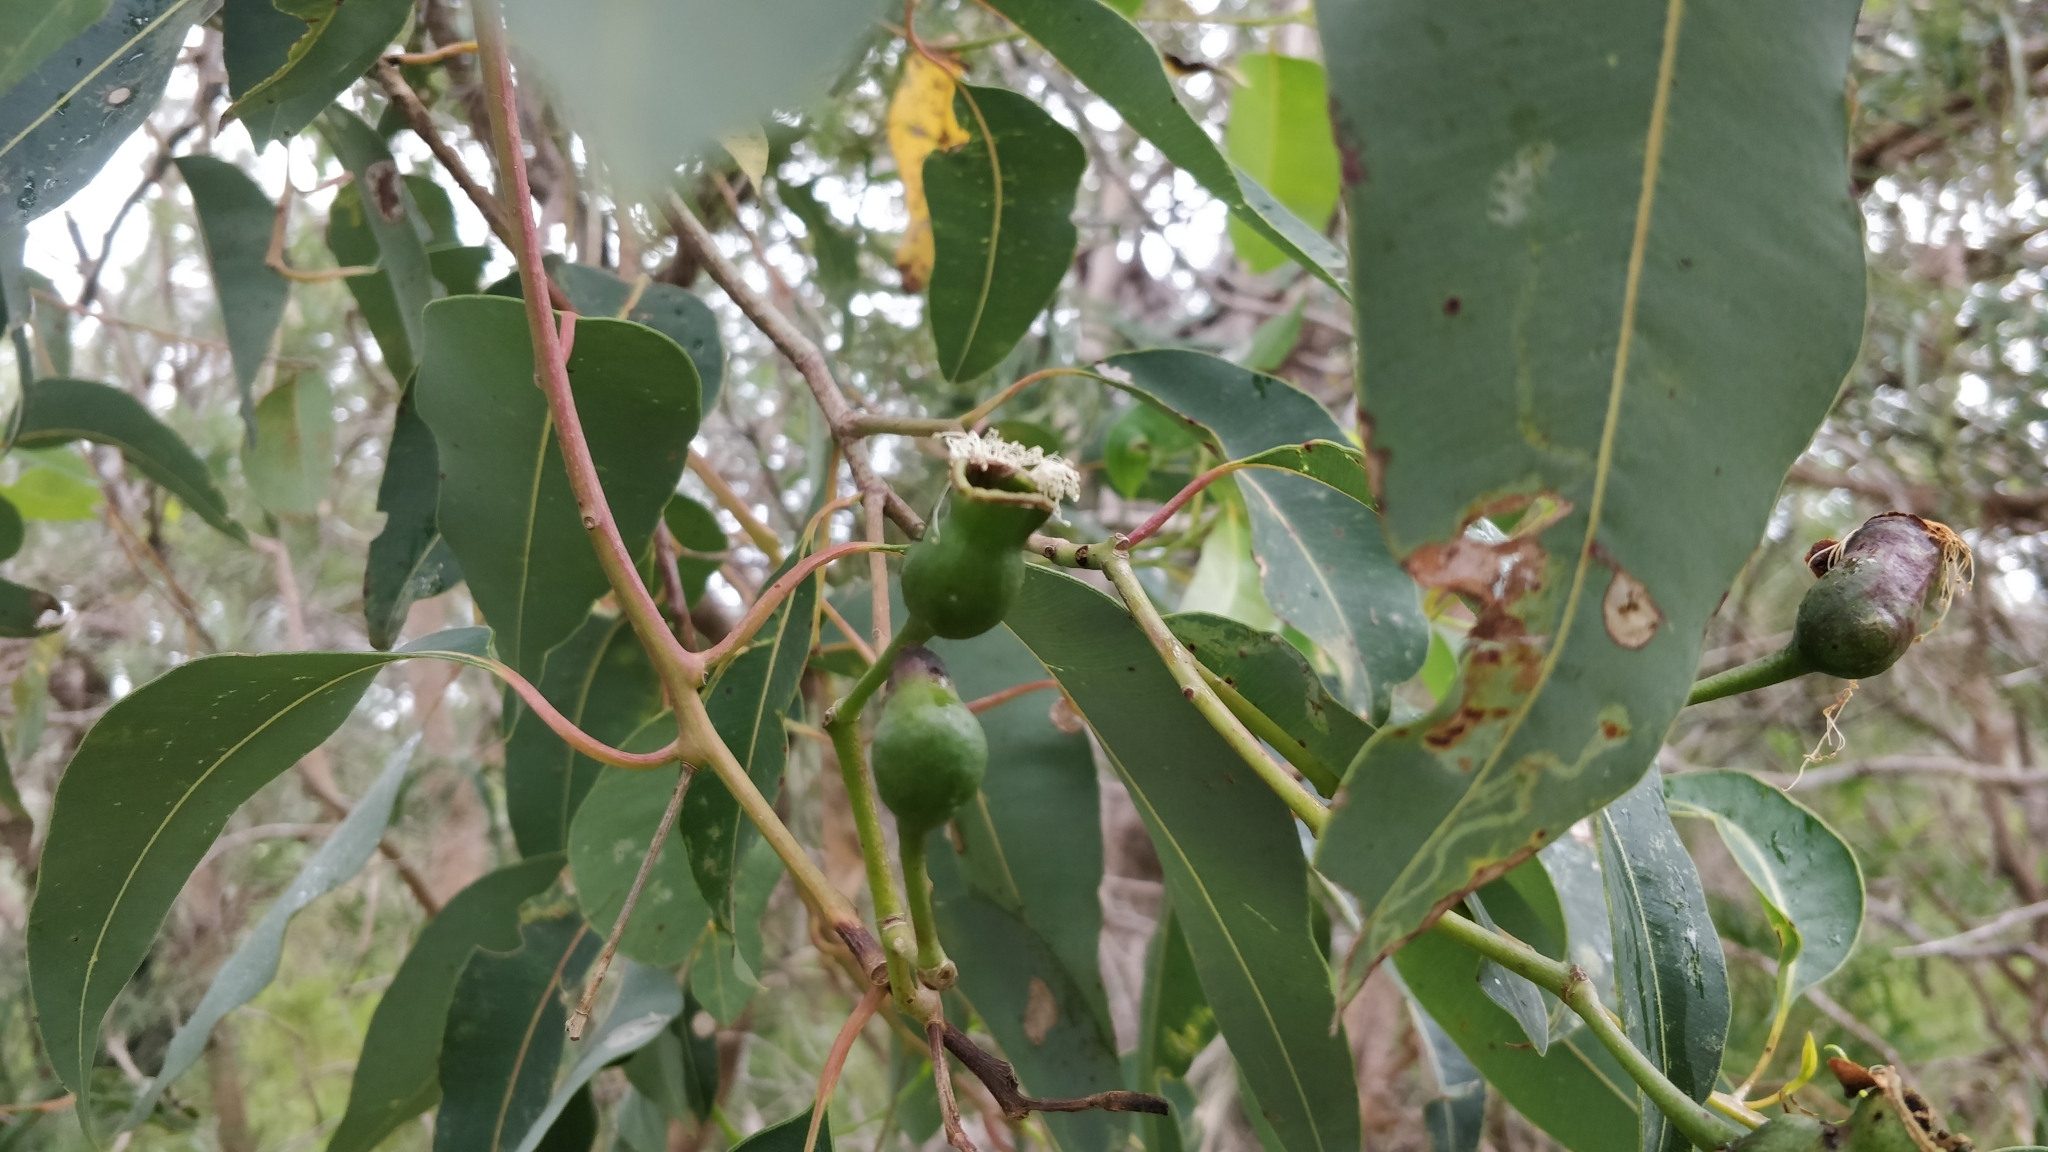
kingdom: Plantae
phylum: Tracheophyta
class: Magnoliopsida
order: Myrtales
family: Myrtaceae
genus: Corymbia
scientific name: Corymbia calophylla
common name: Marri
